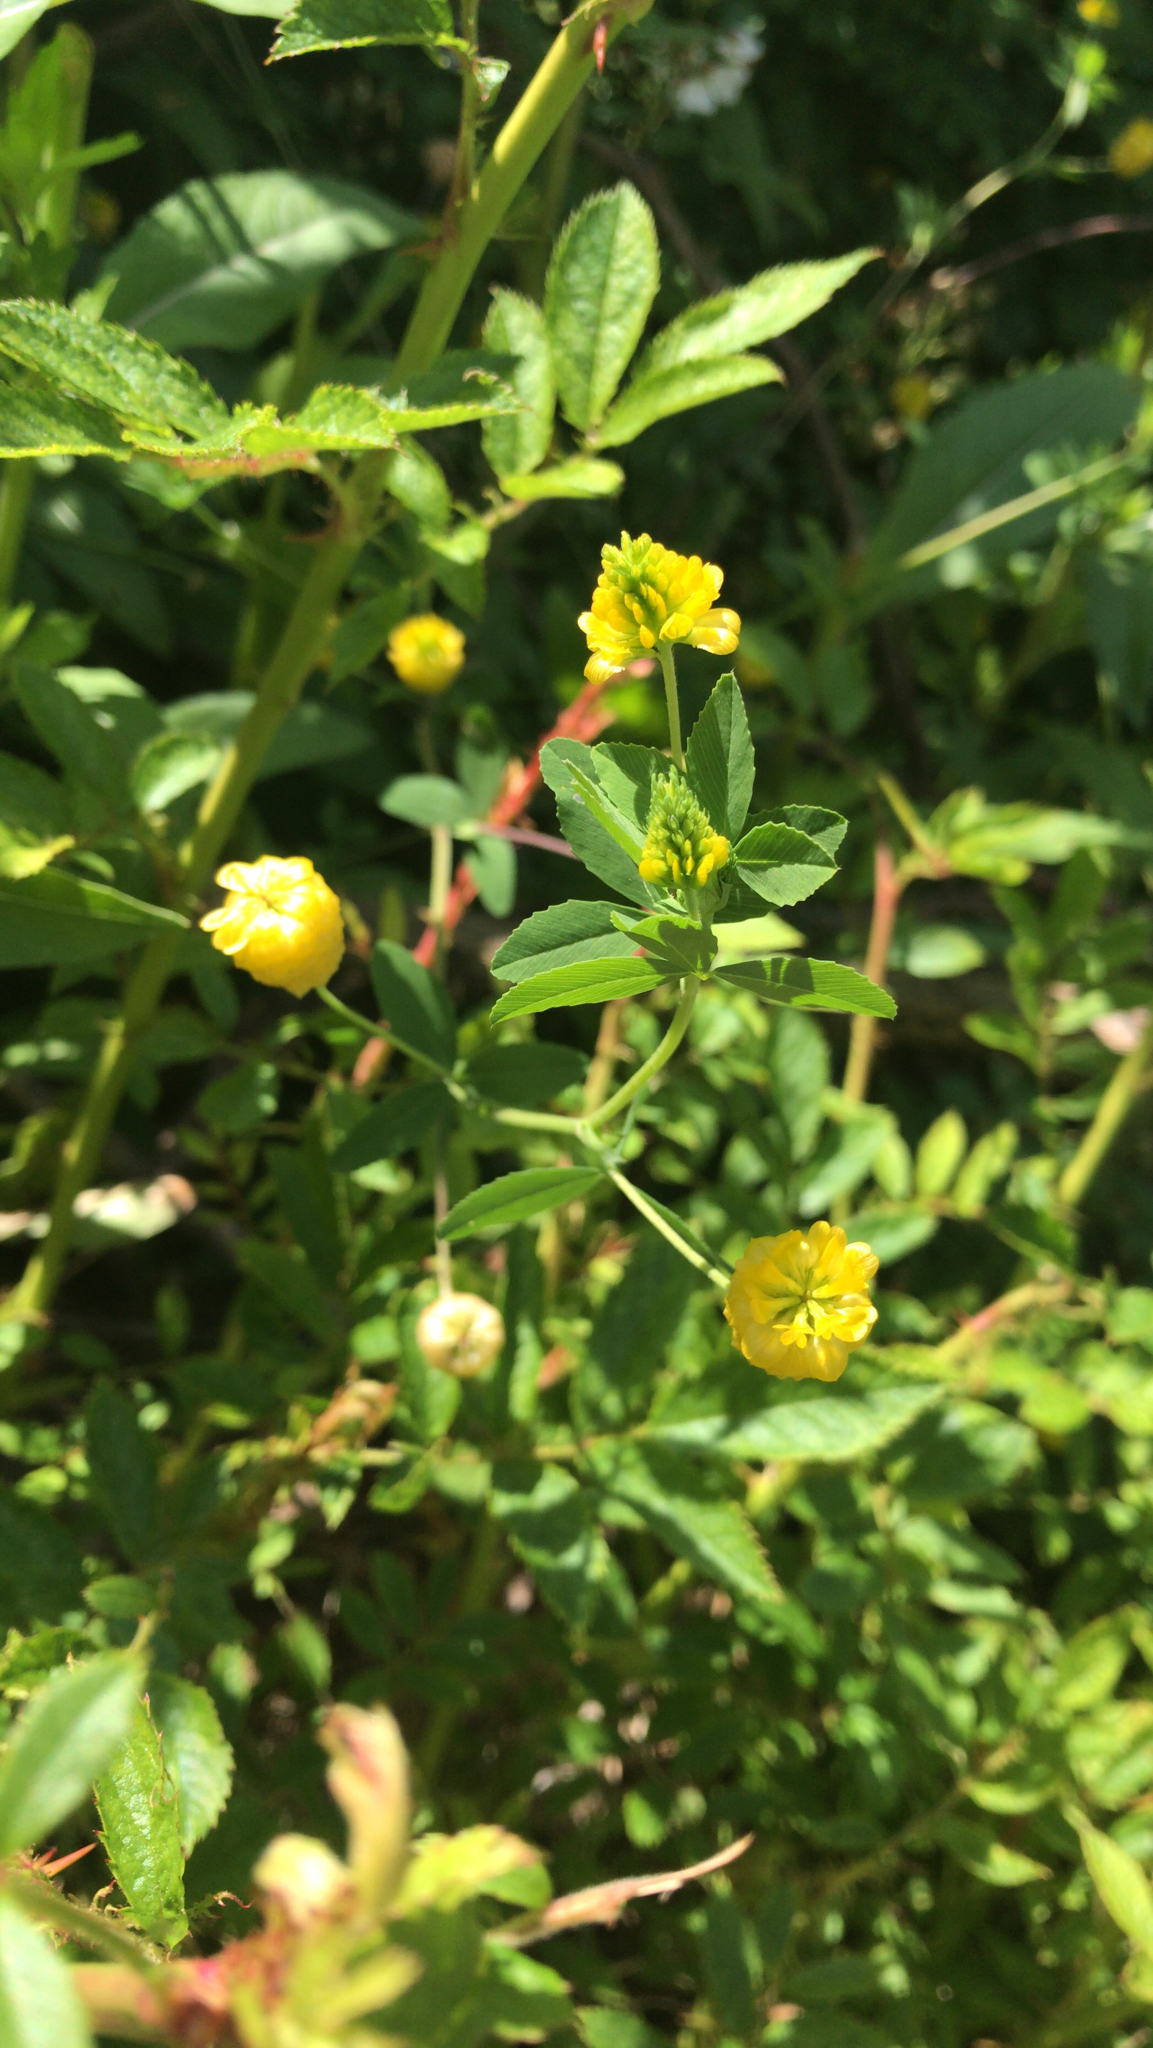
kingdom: Plantae
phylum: Tracheophyta
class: Magnoliopsida
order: Fabales
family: Fabaceae
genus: Trifolium
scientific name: Trifolium aureum
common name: Golden clover
